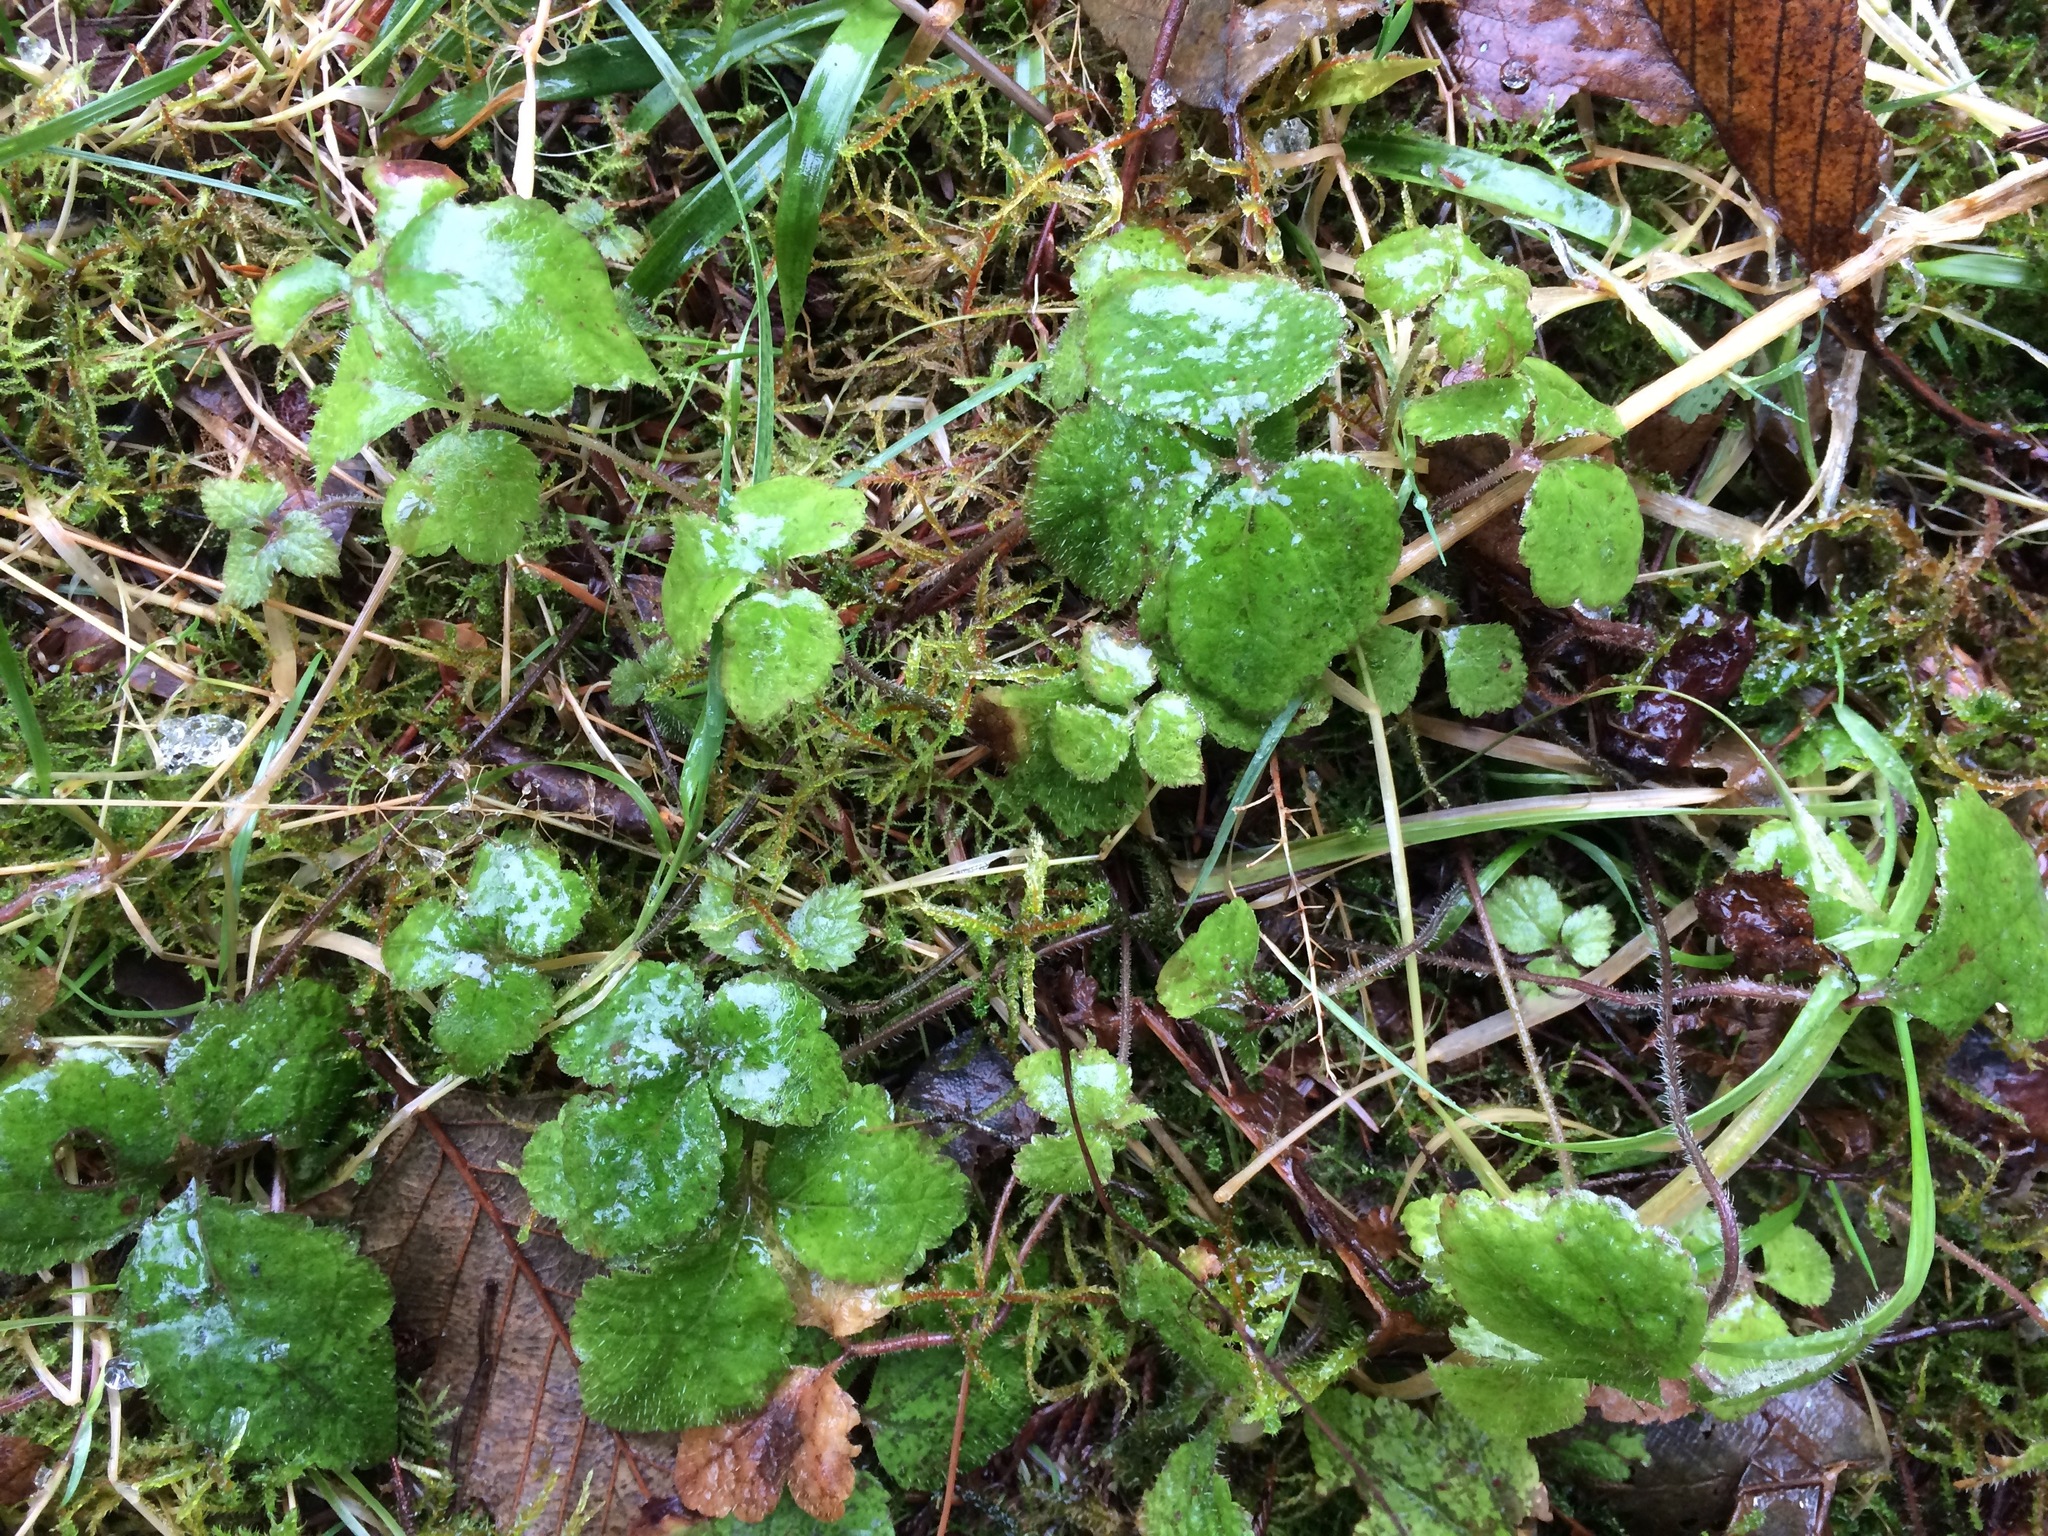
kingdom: Plantae
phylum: Tracheophyta
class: Magnoliopsida
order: Saxifragales
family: Saxifragaceae
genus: Tiarella
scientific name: Tiarella trifoliata
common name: Sugar-scoop
